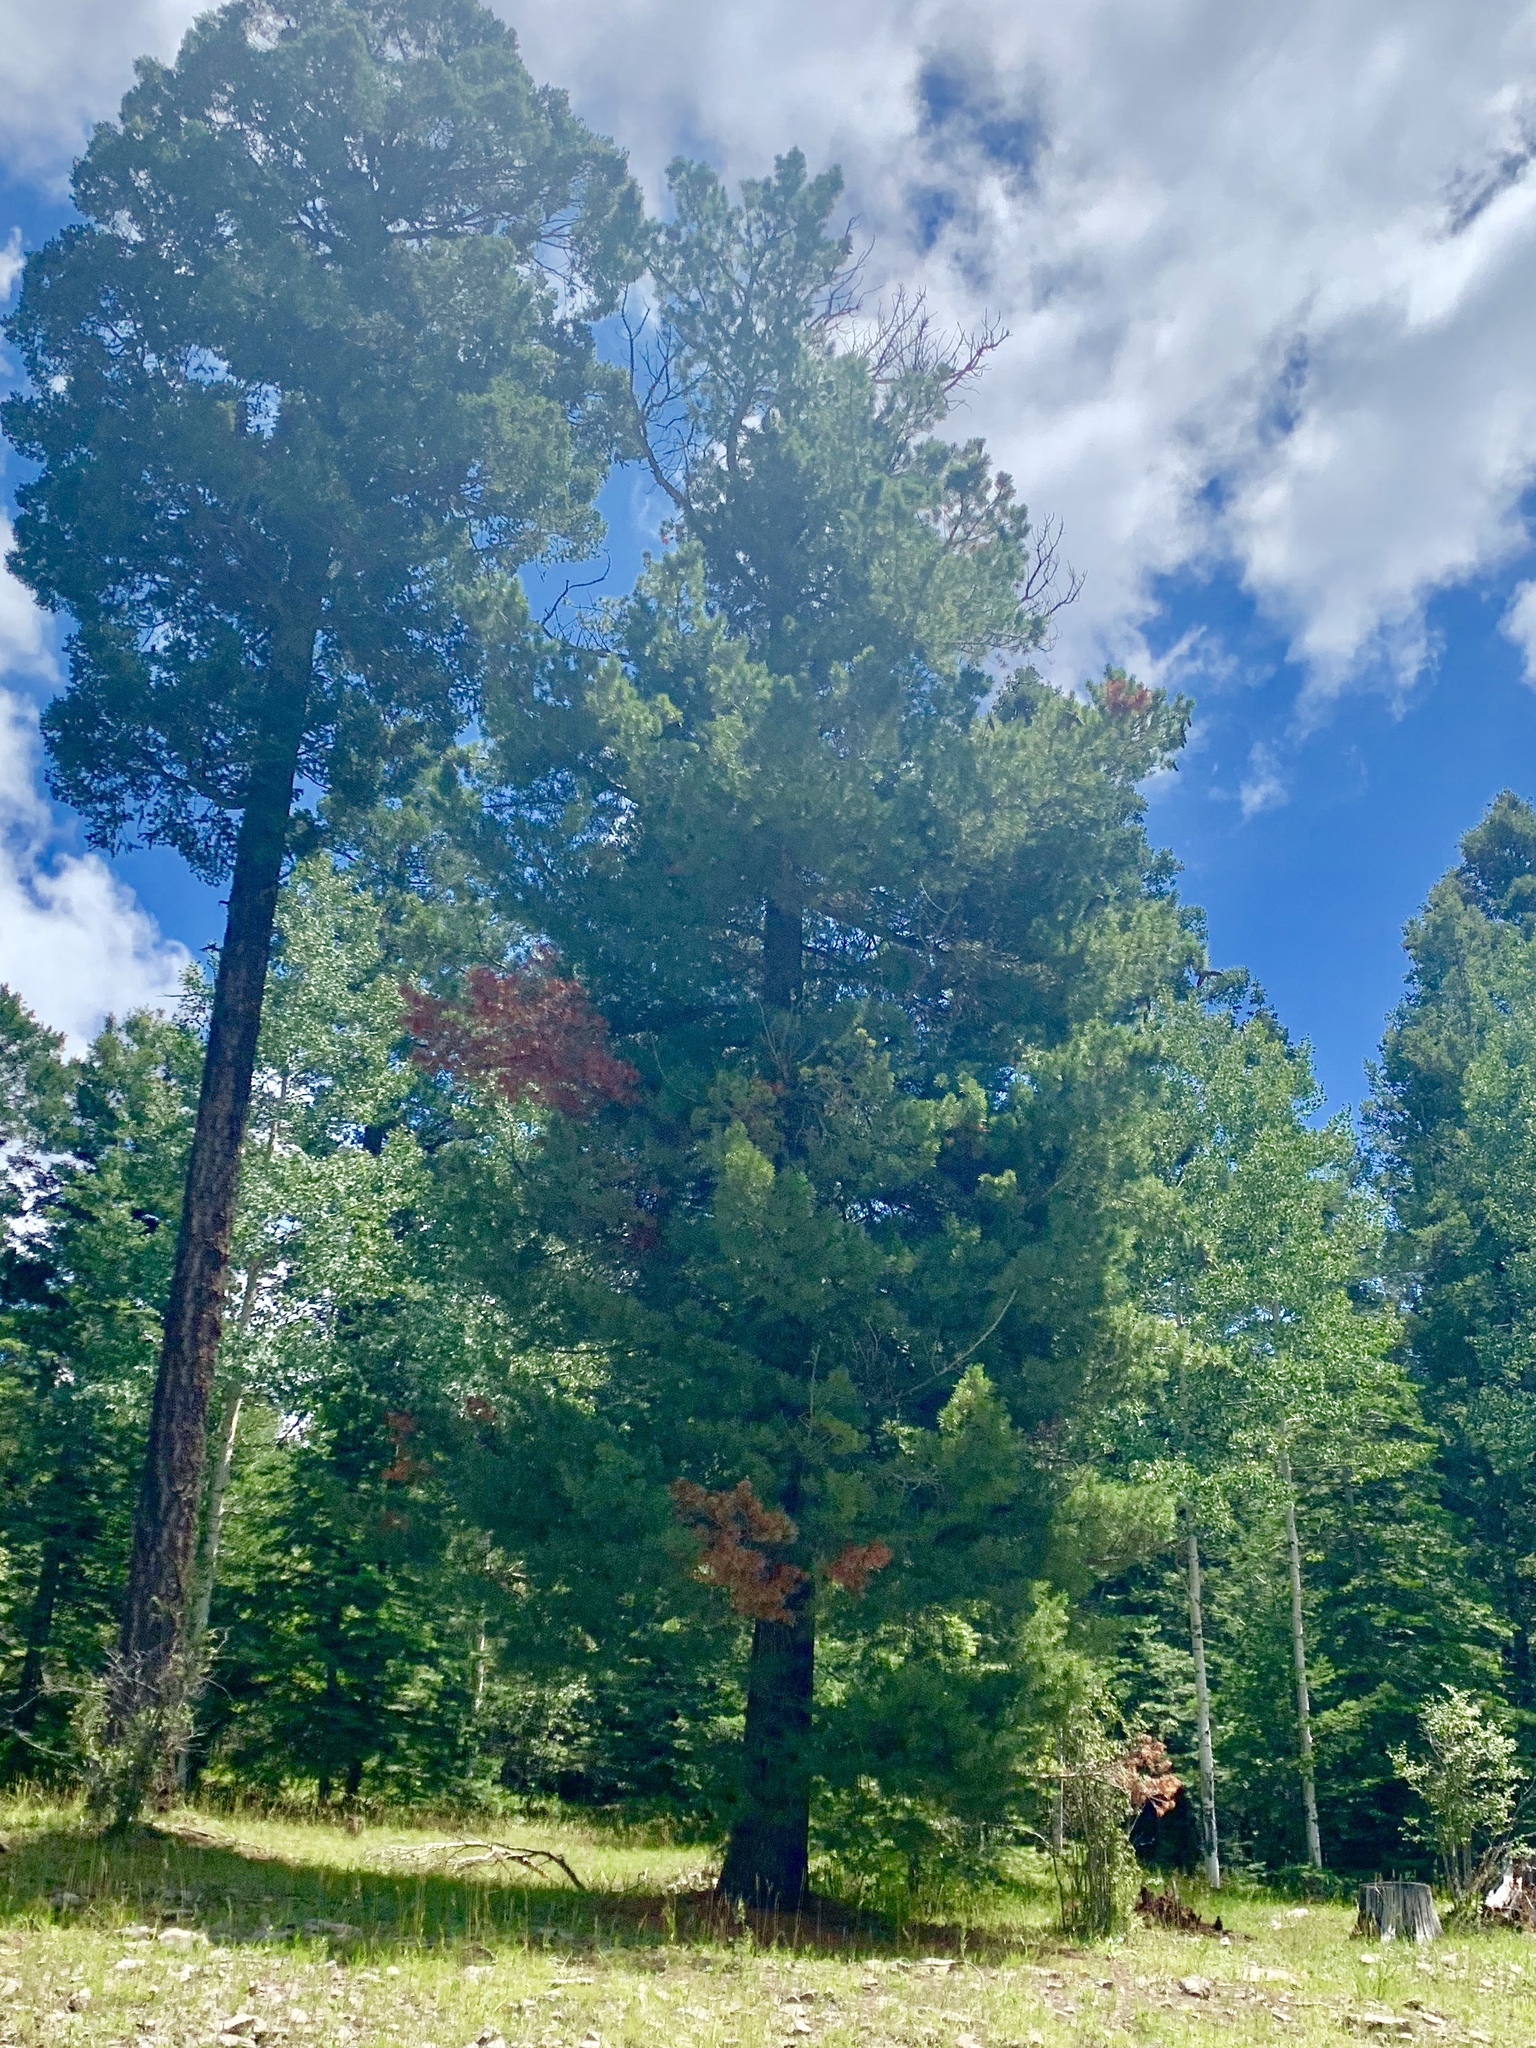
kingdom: Plantae
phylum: Tracheophyta
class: Pinopsida
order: Pinales
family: Pinaceae
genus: Pinus
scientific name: Pinus strobiformis
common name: Southwestern white pine
